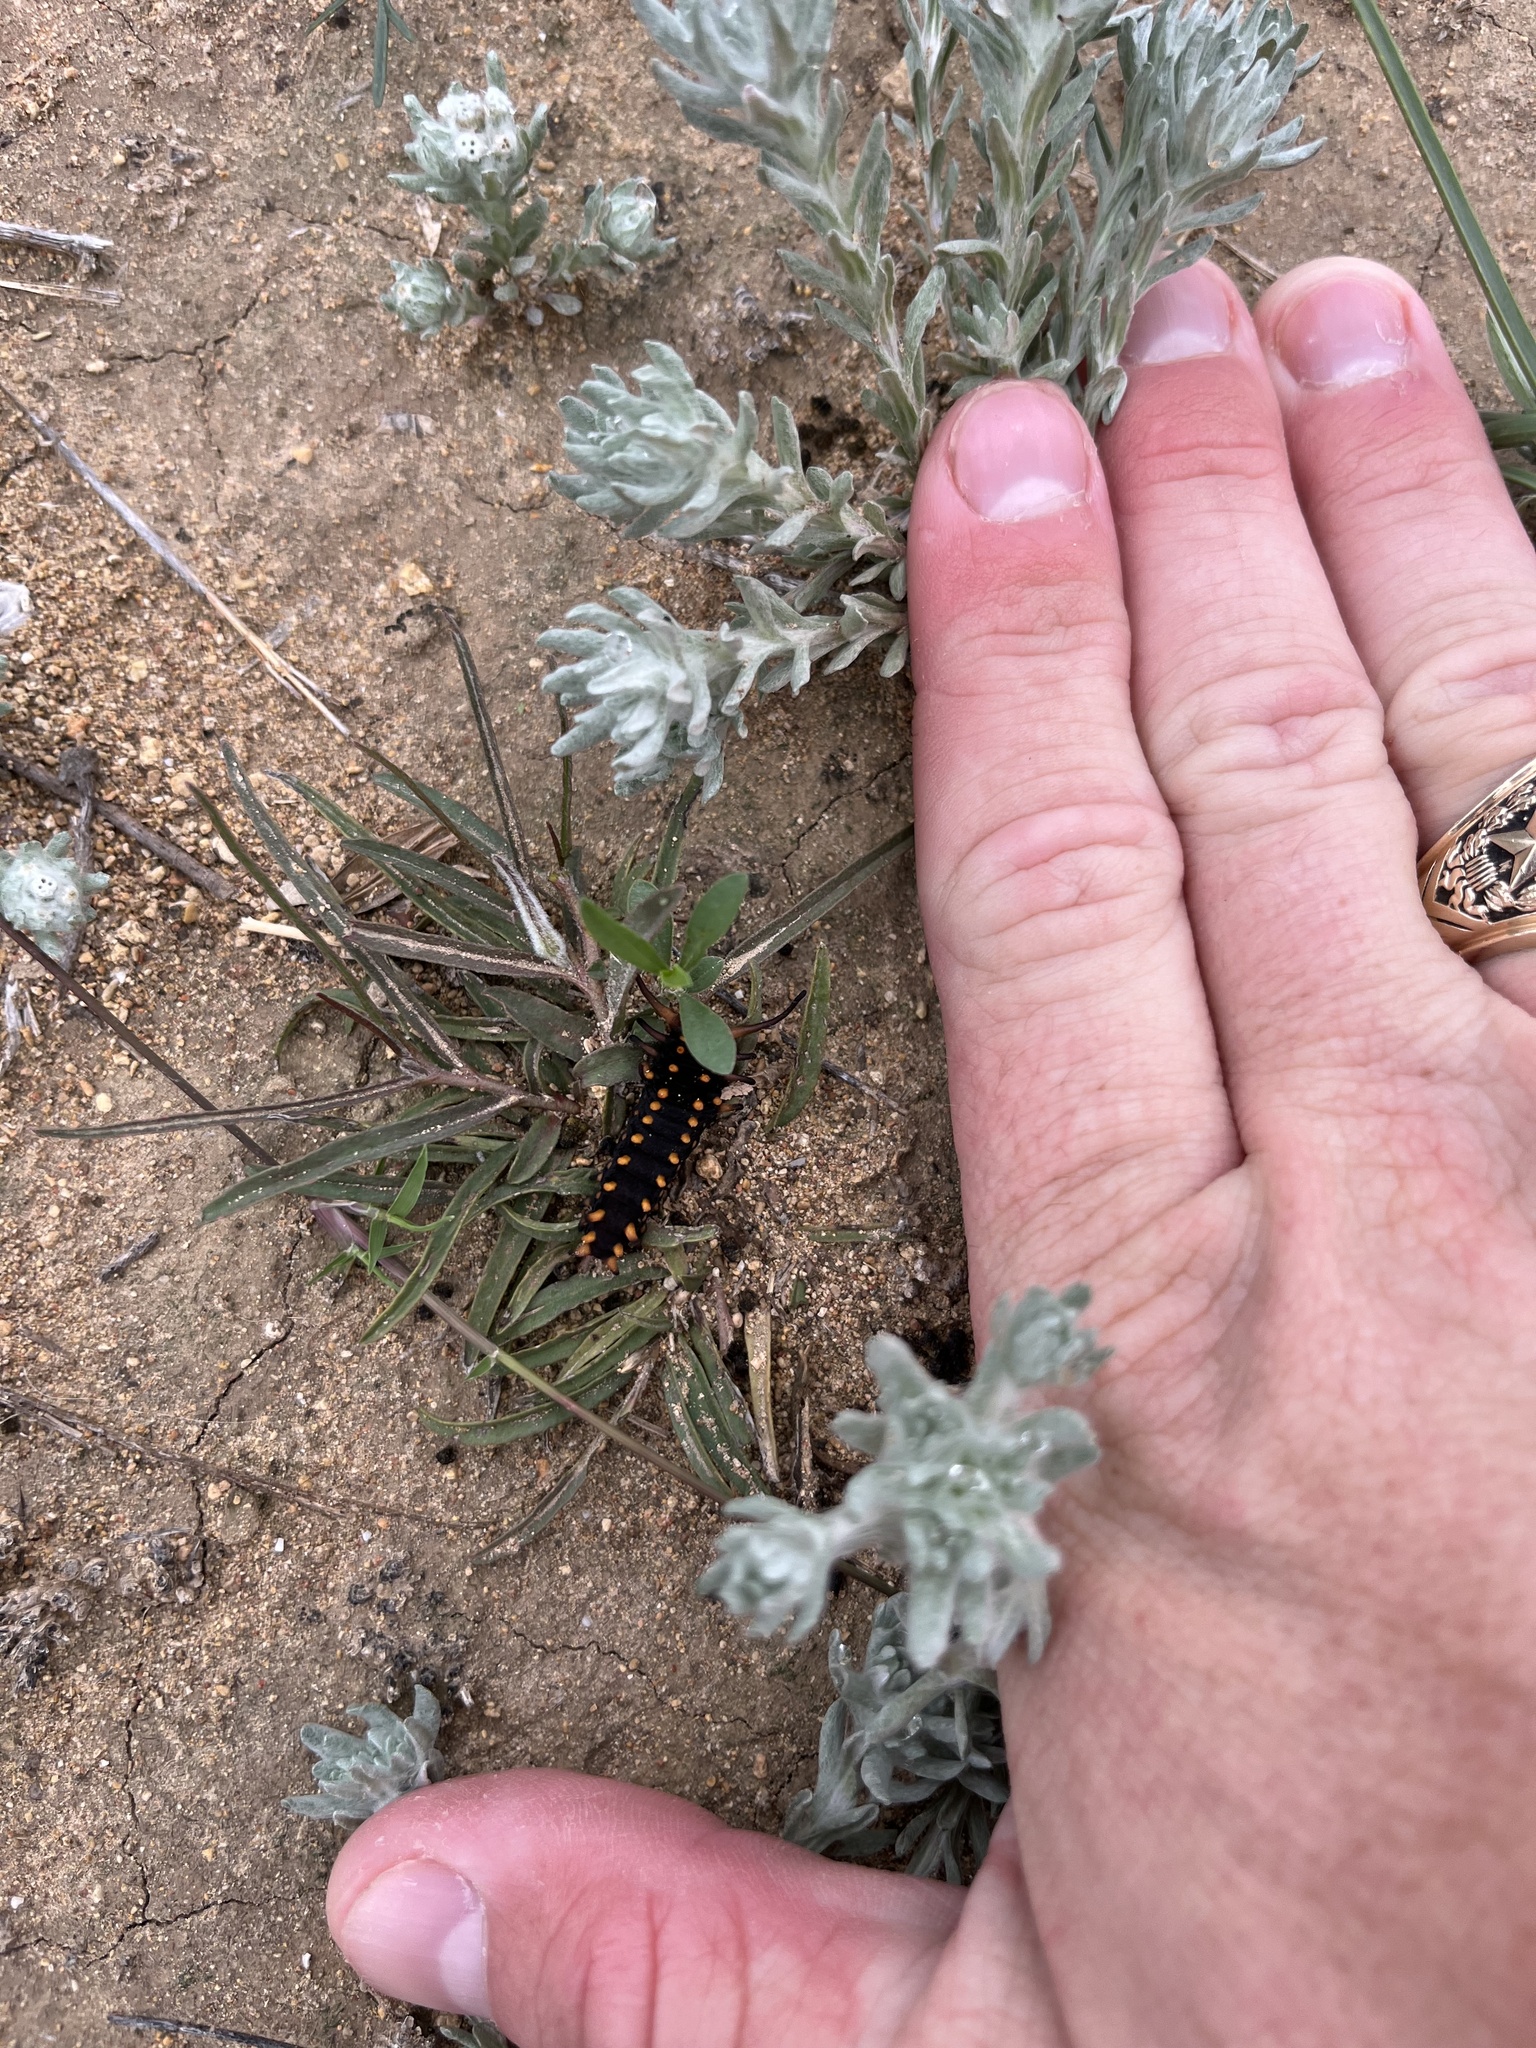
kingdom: Animalia
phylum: Arthropoda
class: Insecta
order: Lepidoptera
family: Papilionidae
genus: Battus
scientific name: Battus philenor
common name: Pipevine swallowtail
